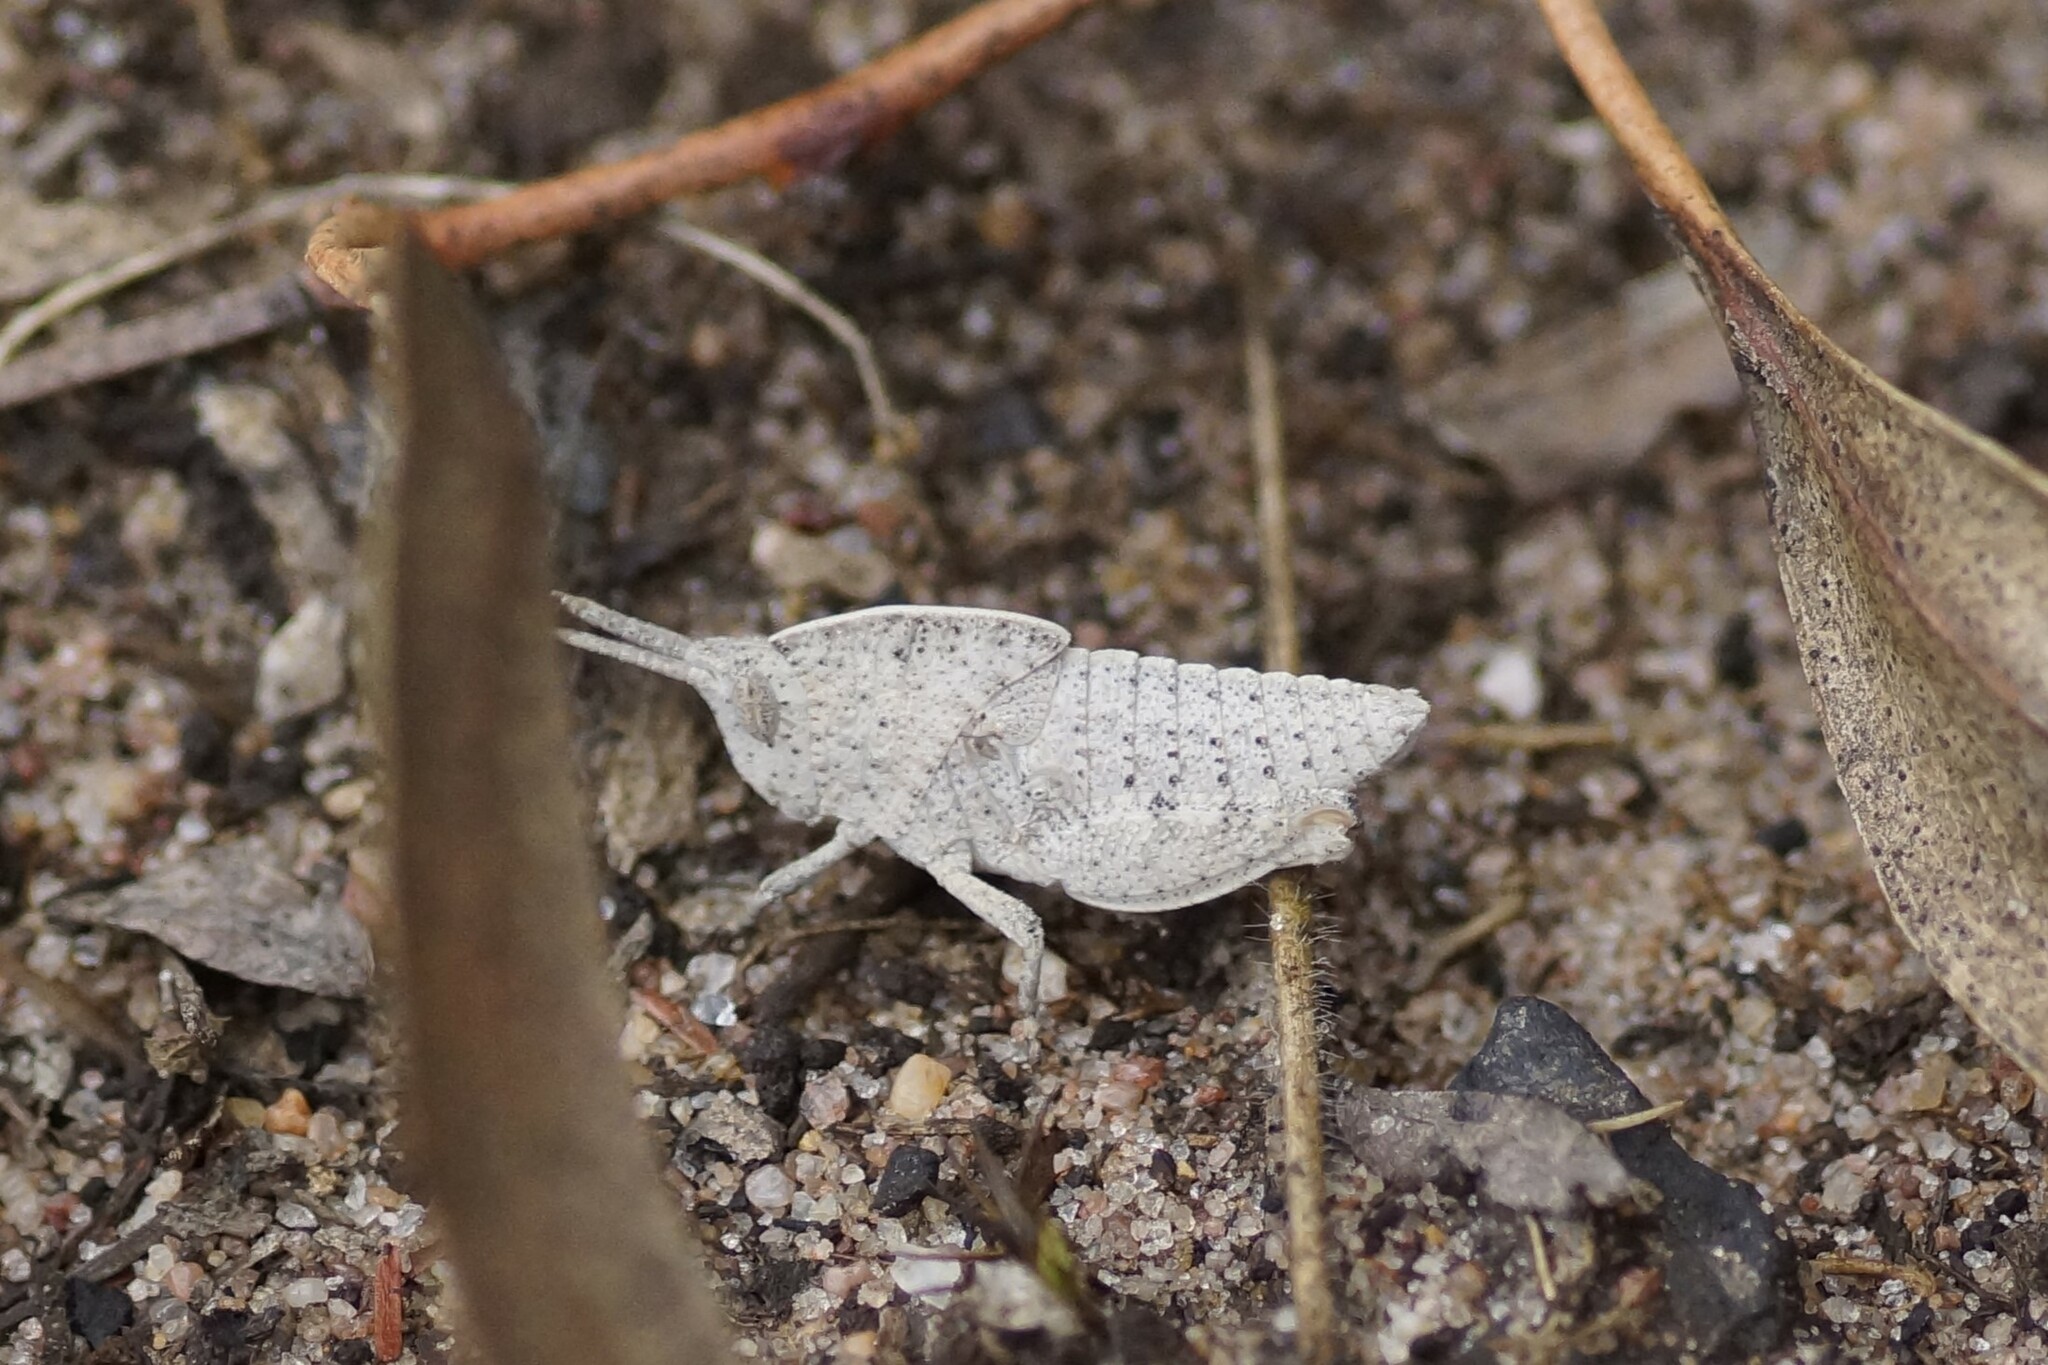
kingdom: Animalia
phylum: Arthropoda
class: Insecta
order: Orthoptera
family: Acrididae
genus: Goniaea
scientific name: Goniaea australasiae
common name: Gumleaf grasshopper
